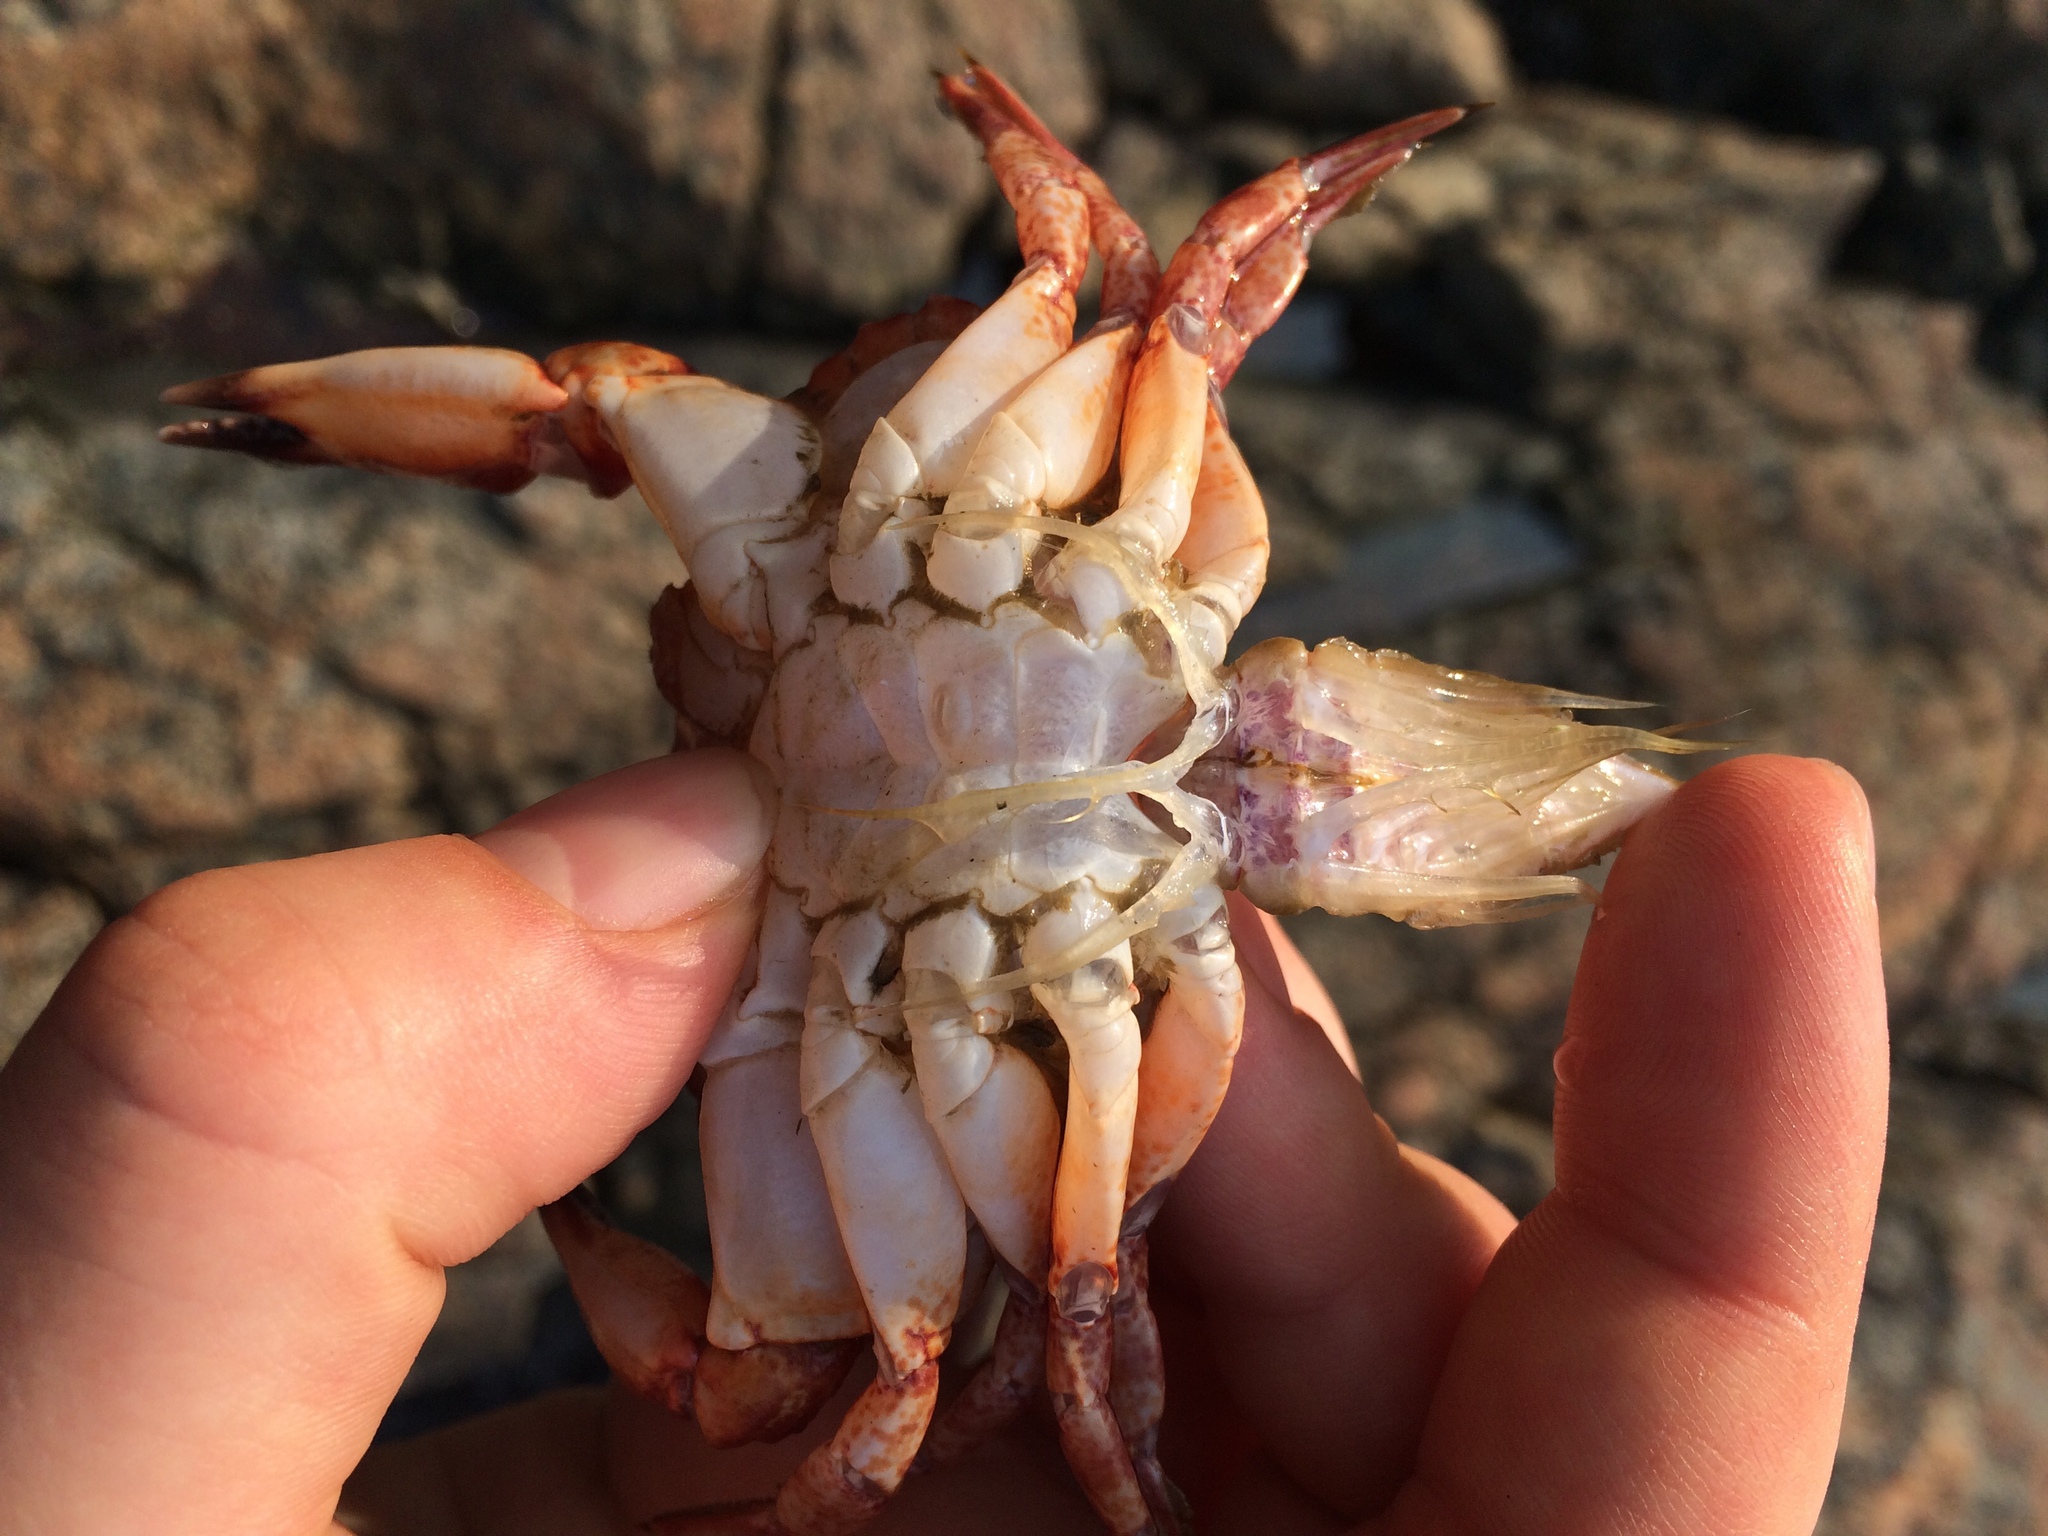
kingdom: Animalia
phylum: Arthropoda
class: Malacostraca
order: Decapoda
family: Cancridae
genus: Cancer
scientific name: Cancer productus
